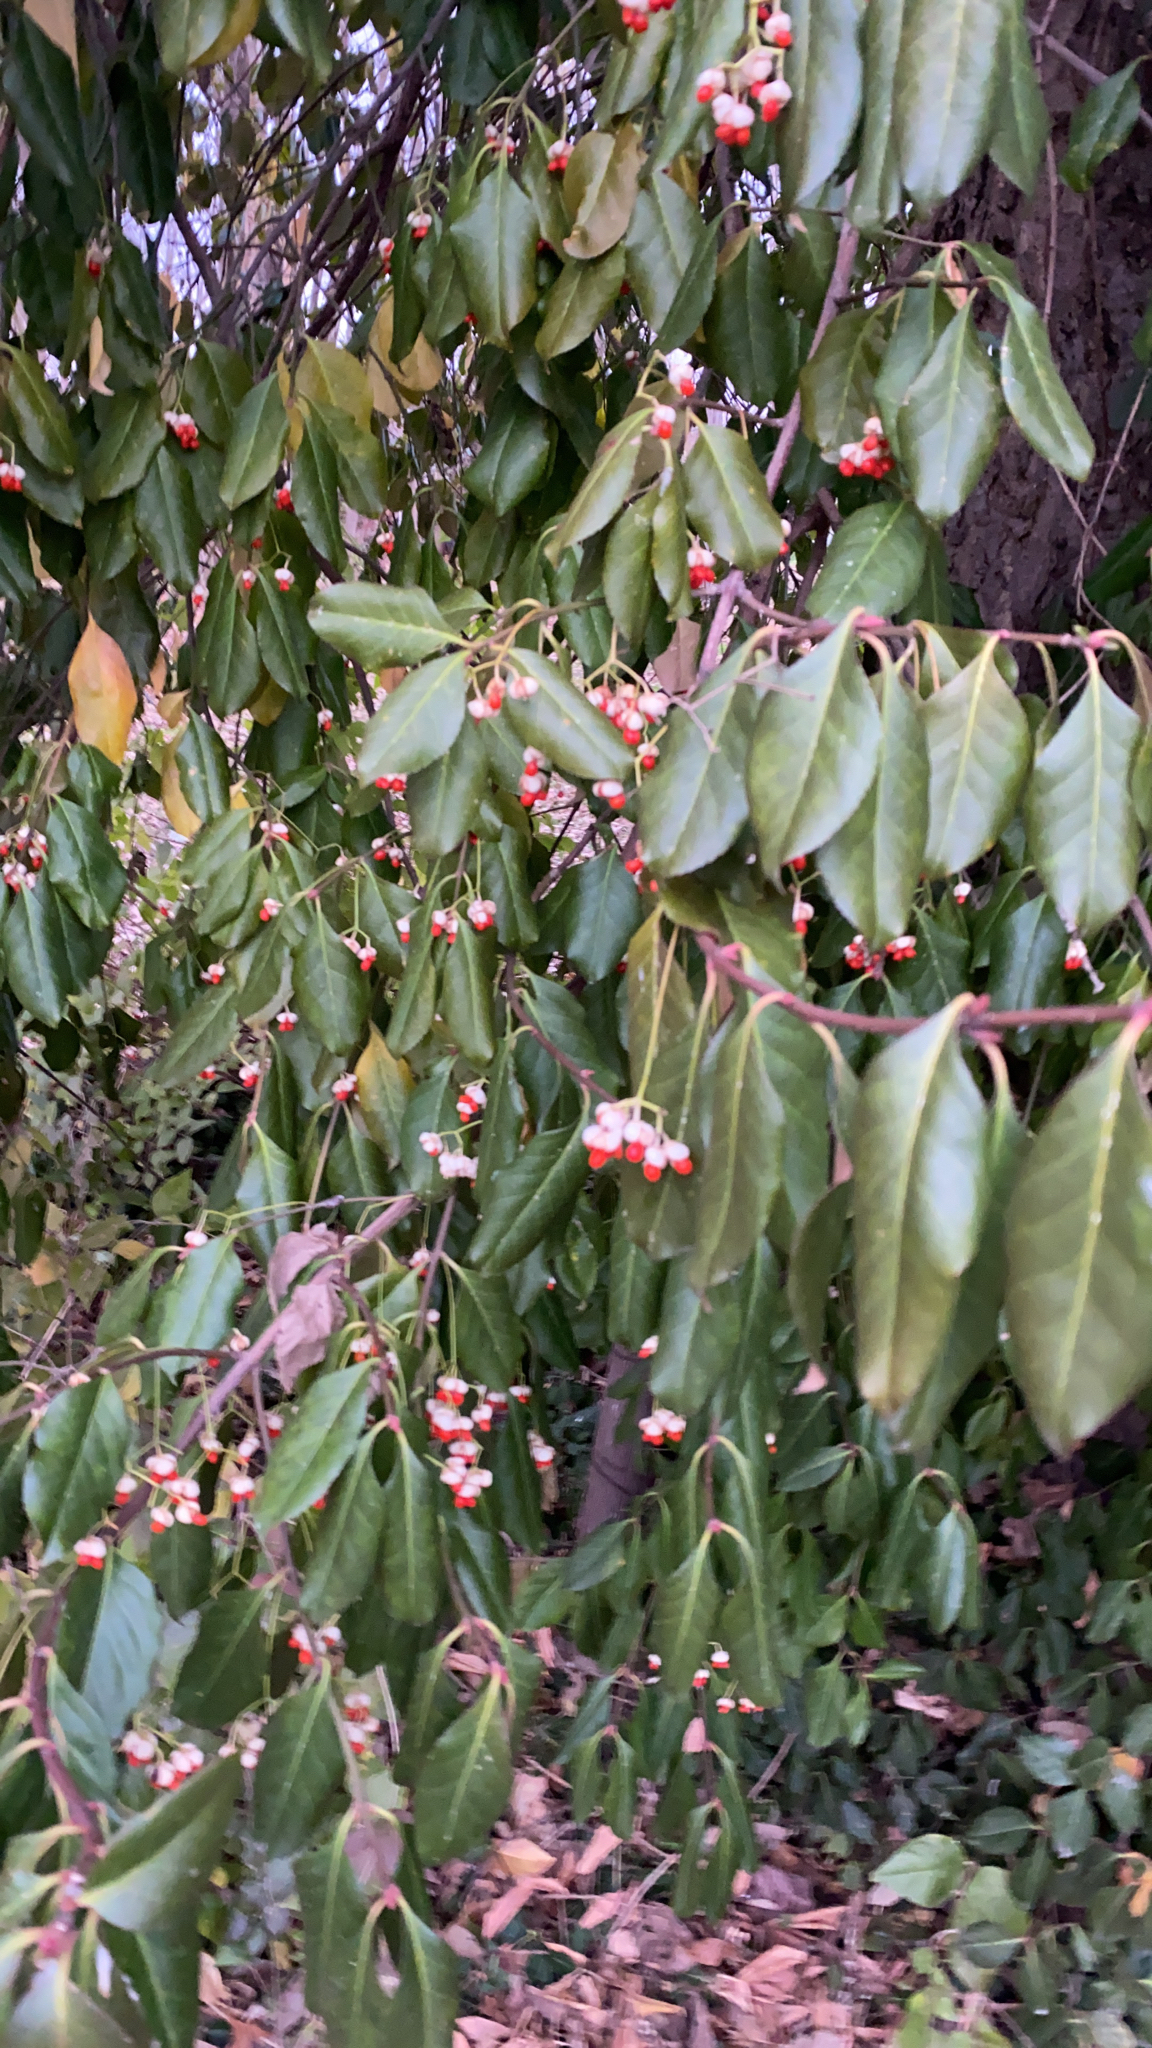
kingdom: Plantae
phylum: Tracheophyta
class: Magnoliopsida
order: Celastrales
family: Celastraceae
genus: Euonymus
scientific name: Euonymus fortunei
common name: Climbing euonymus
